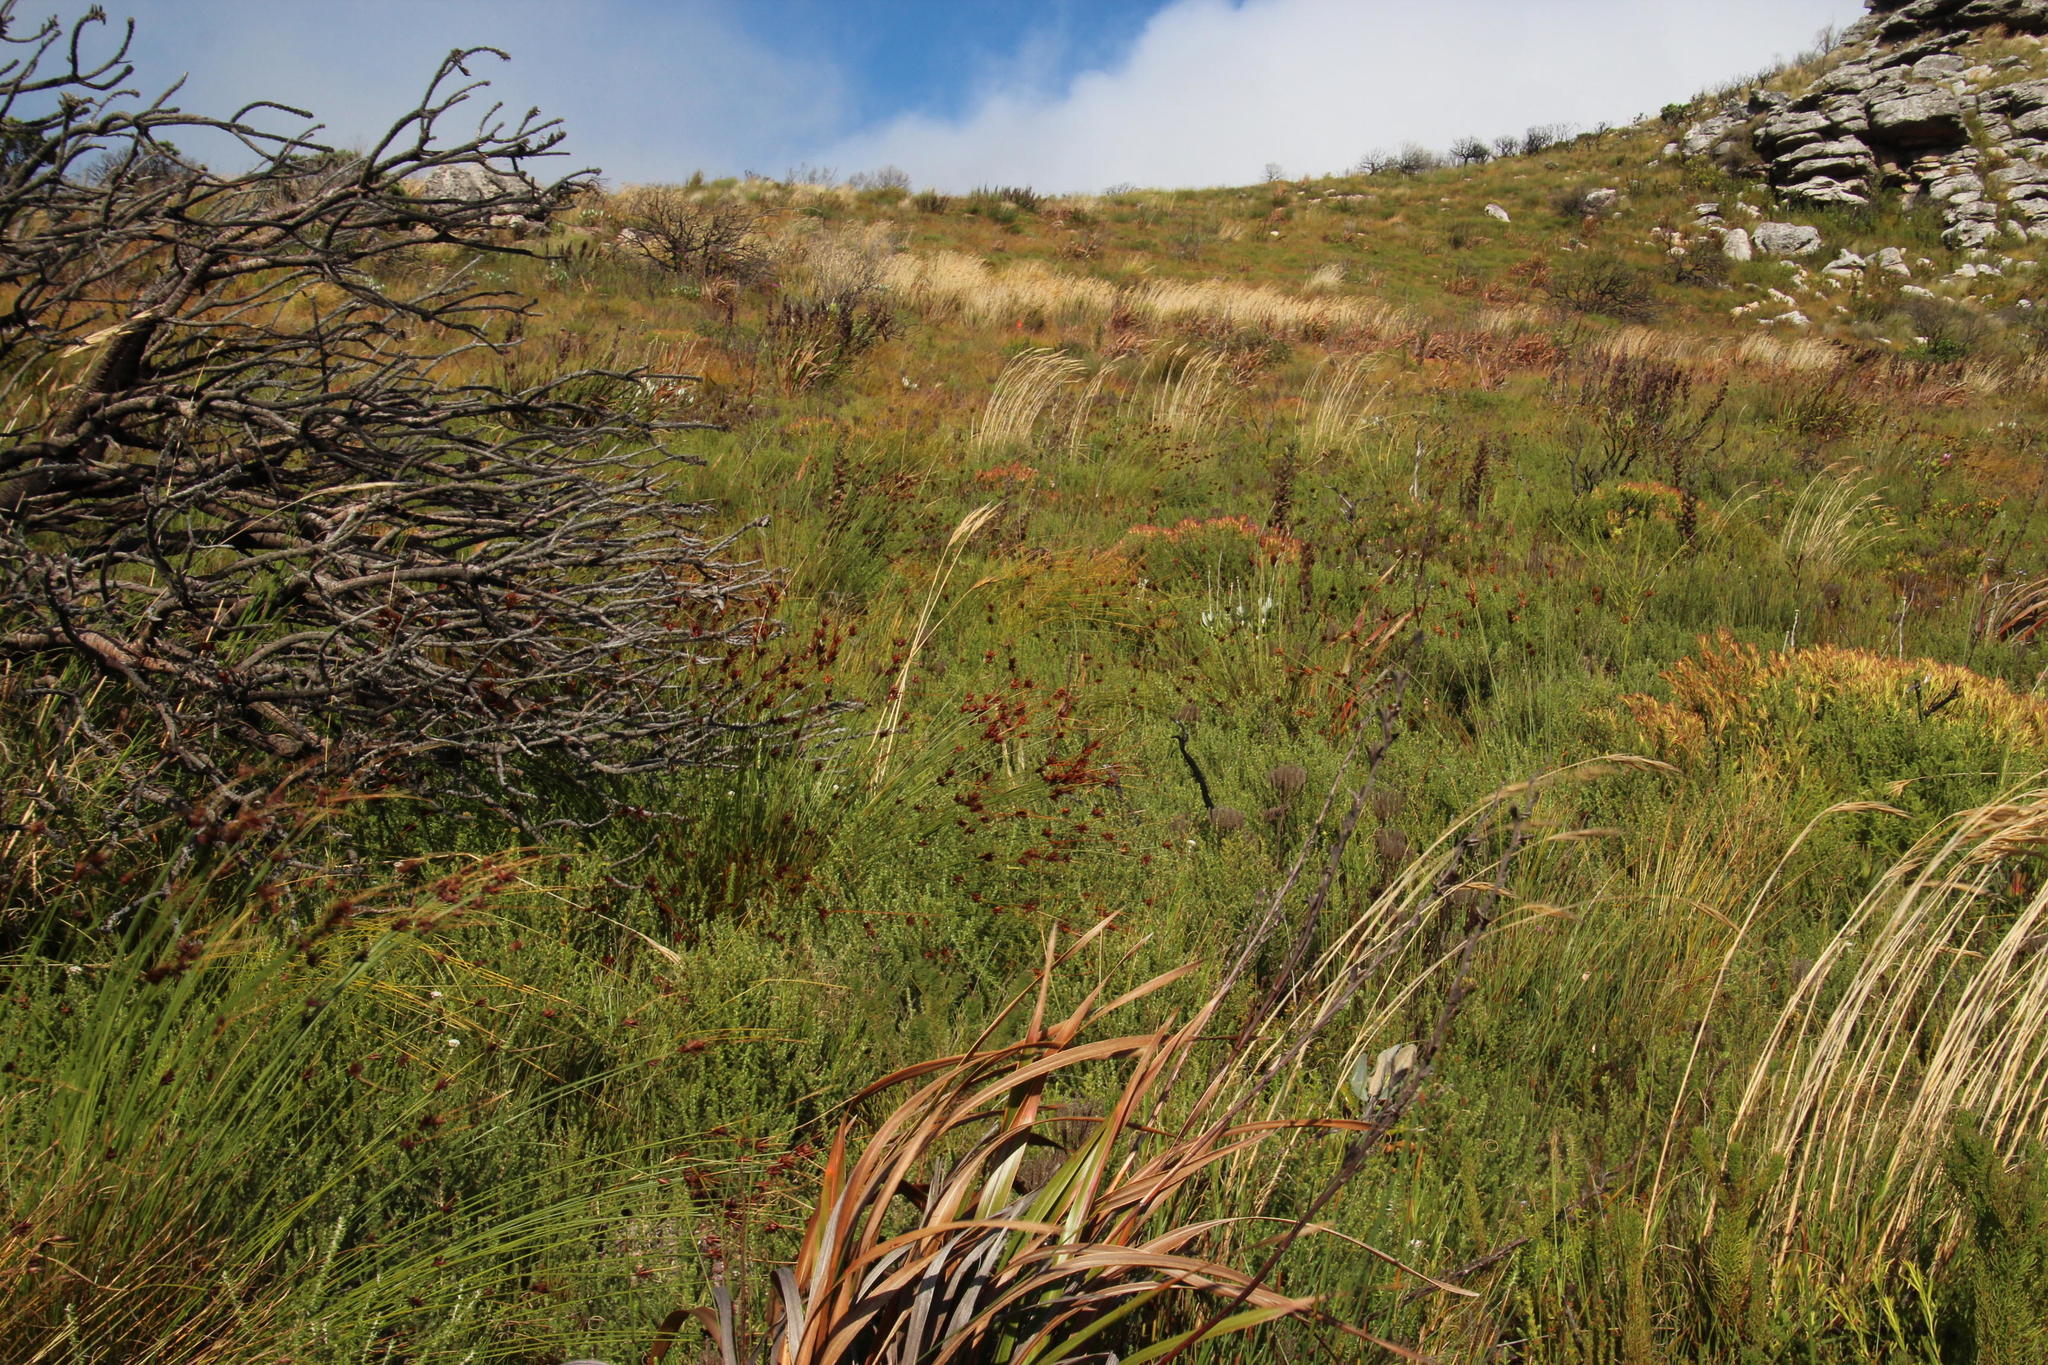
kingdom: Plantae
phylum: Tracheophyta
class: Liliopsida
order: Poales
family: Cyperaceae
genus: Schoenus
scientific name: Schoenus compar
